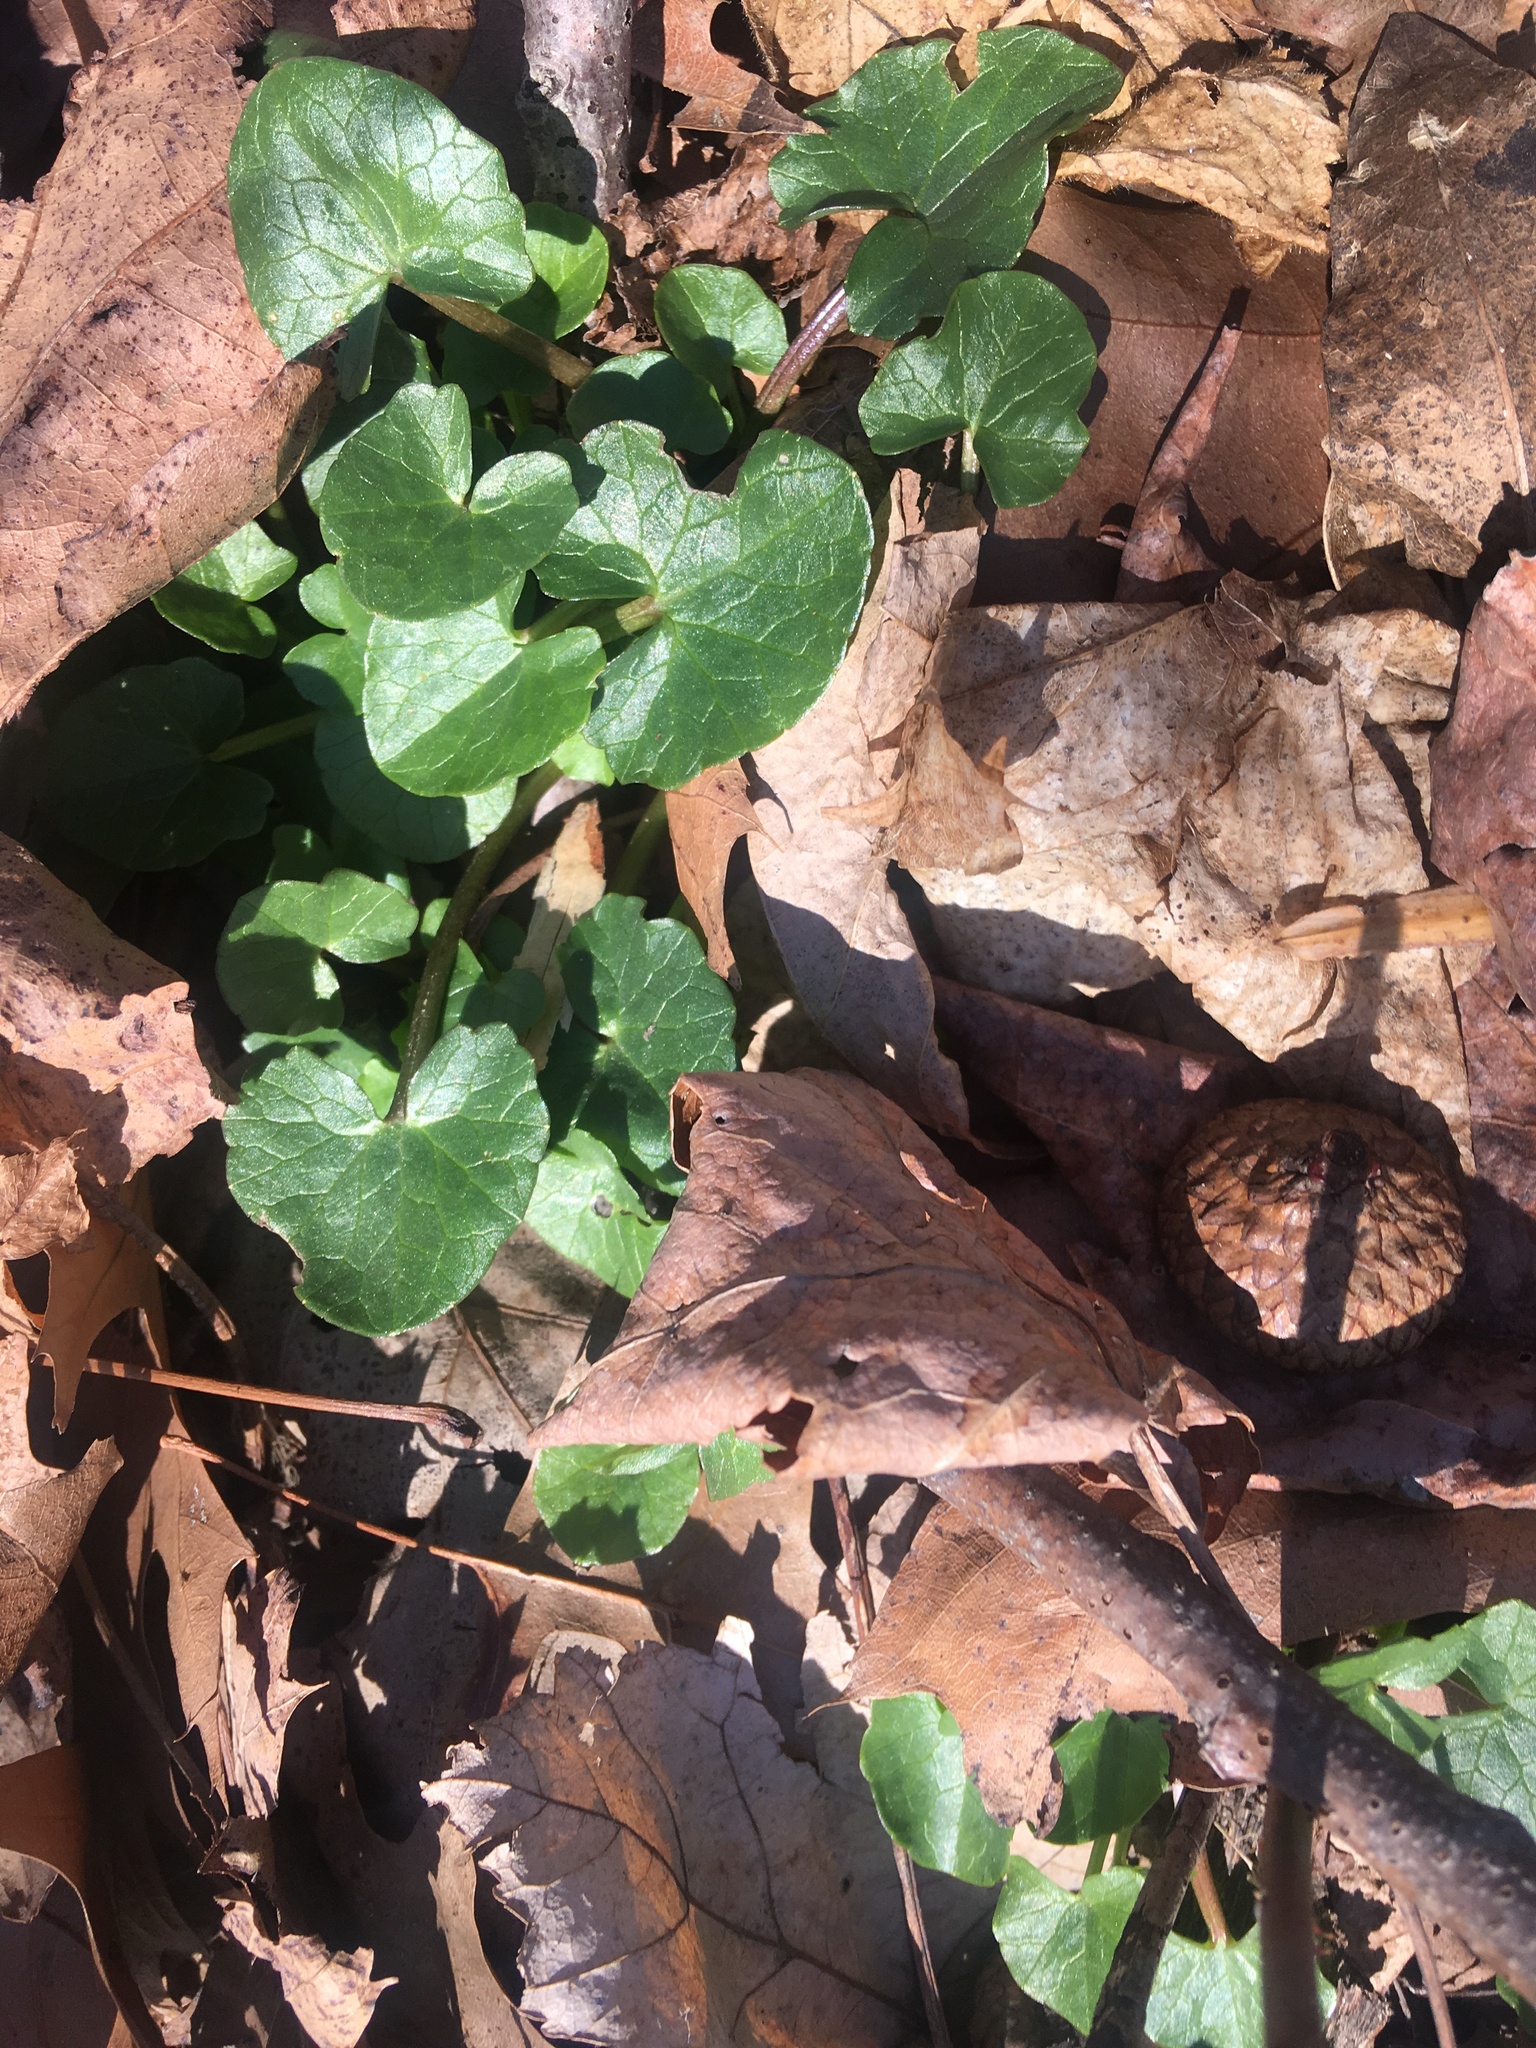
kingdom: Plantae
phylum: Tracheophyta
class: Magnoliopsida
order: Ranunculales
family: Ranunculaceae
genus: Ficaria
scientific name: Ficaria verna
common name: Lesser celandine
